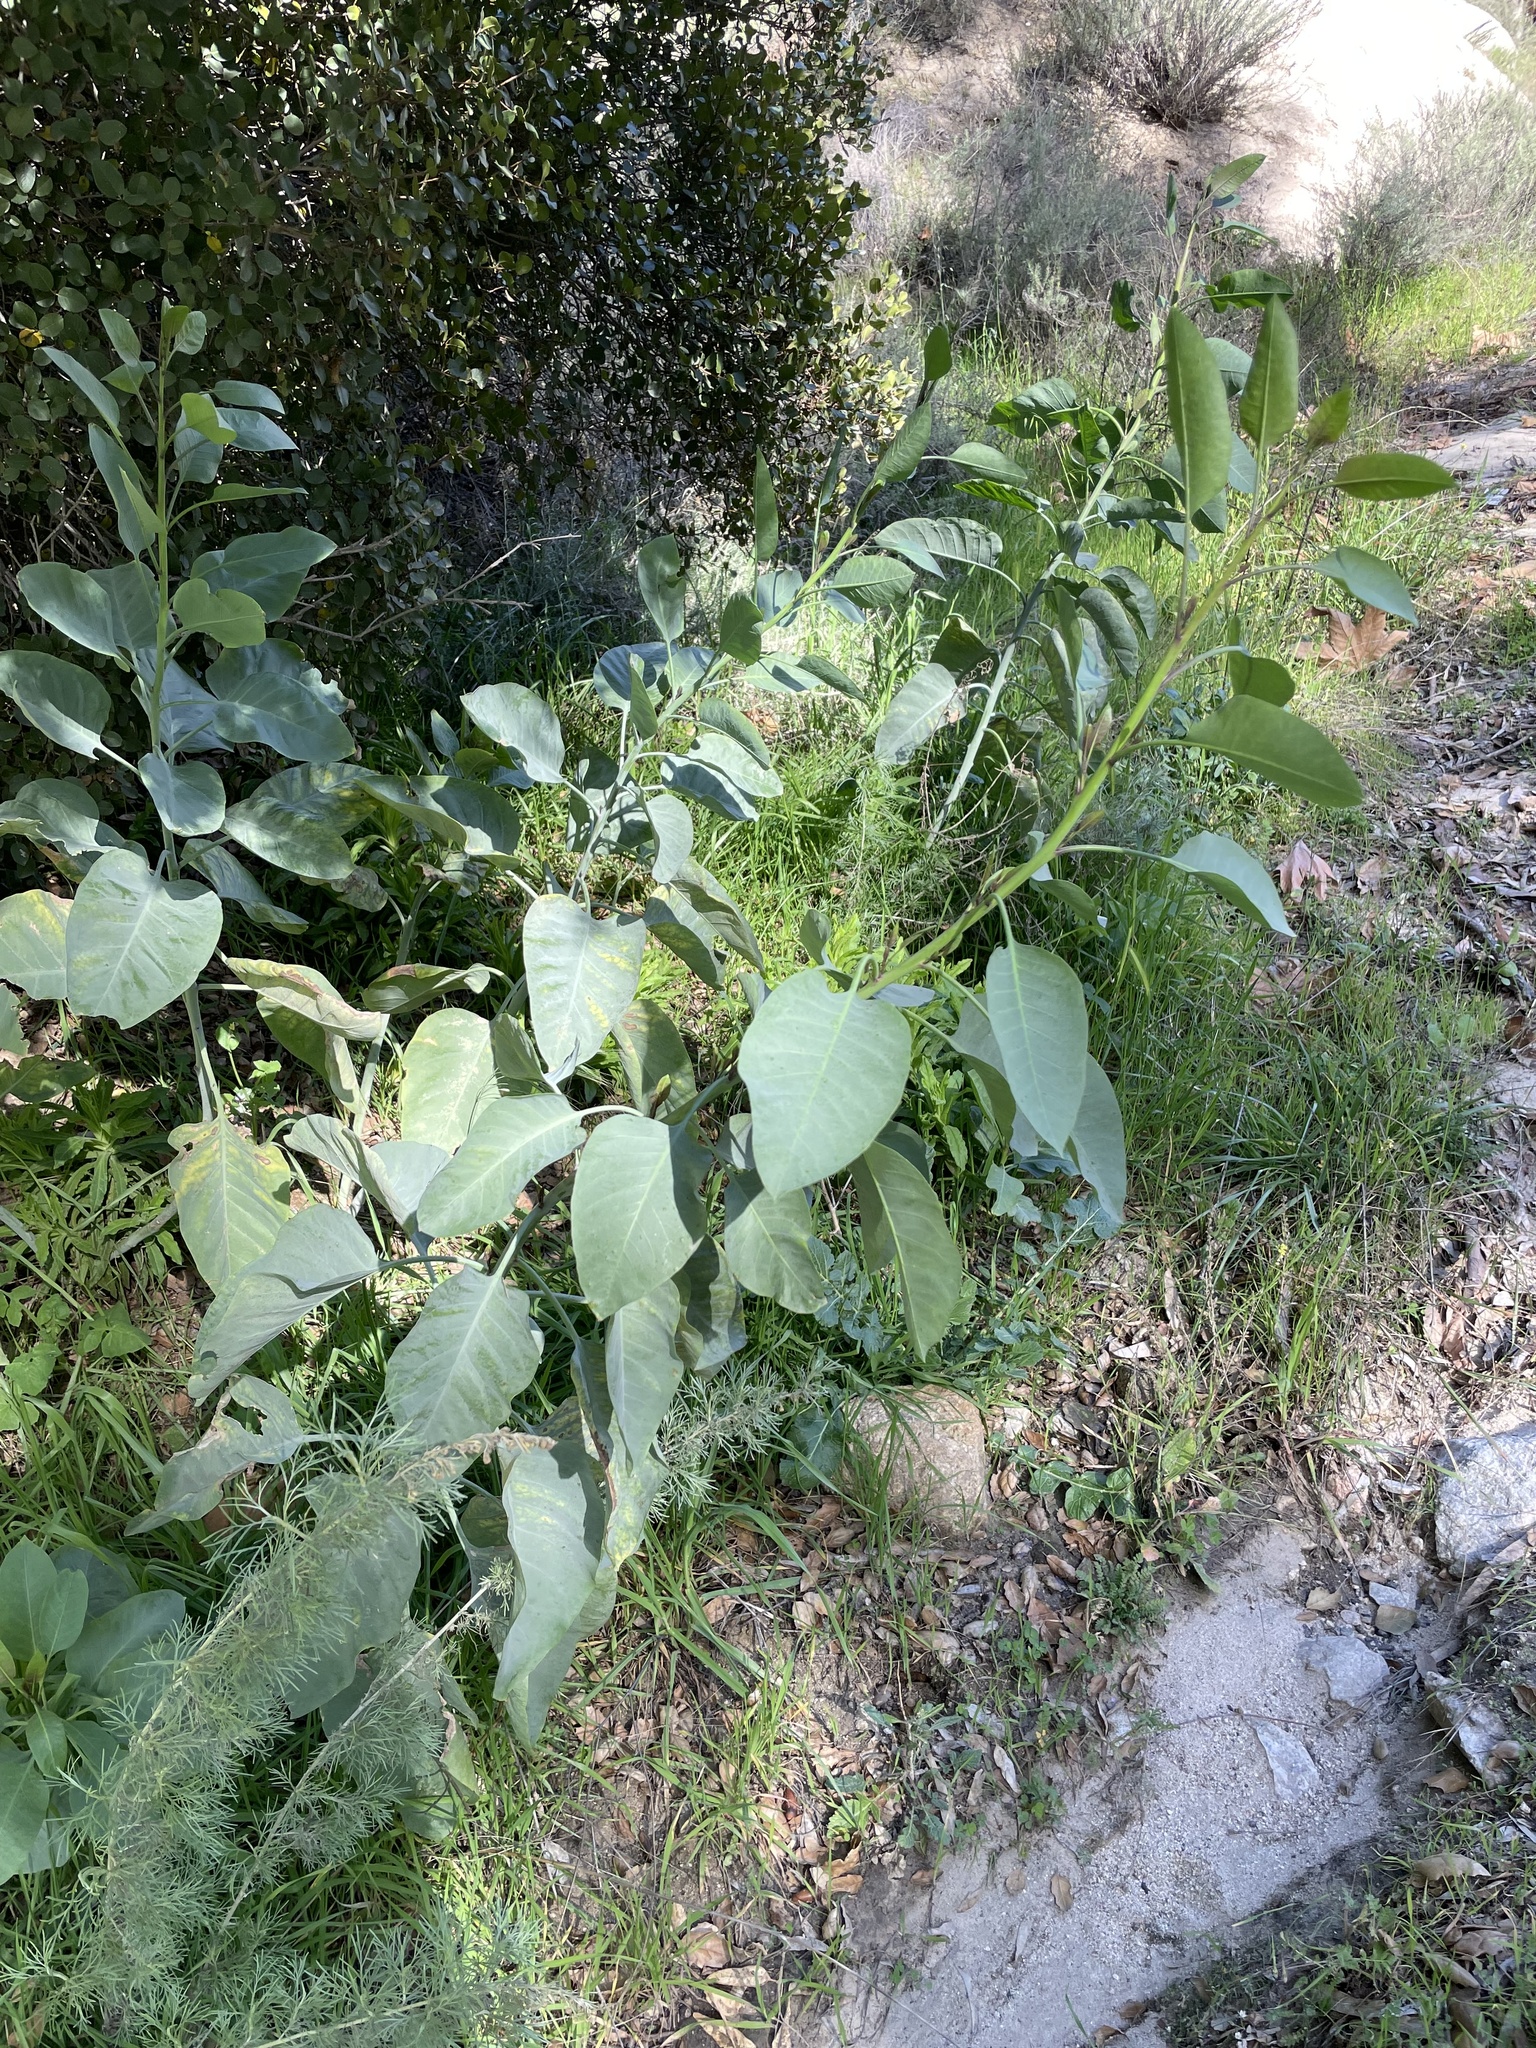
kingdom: Plantae
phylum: Tracheophyta
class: Magnoliopsida
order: Solanales
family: Solanaceae
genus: Nicotiana
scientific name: Nicotiana glauca
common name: Tree tobacco
